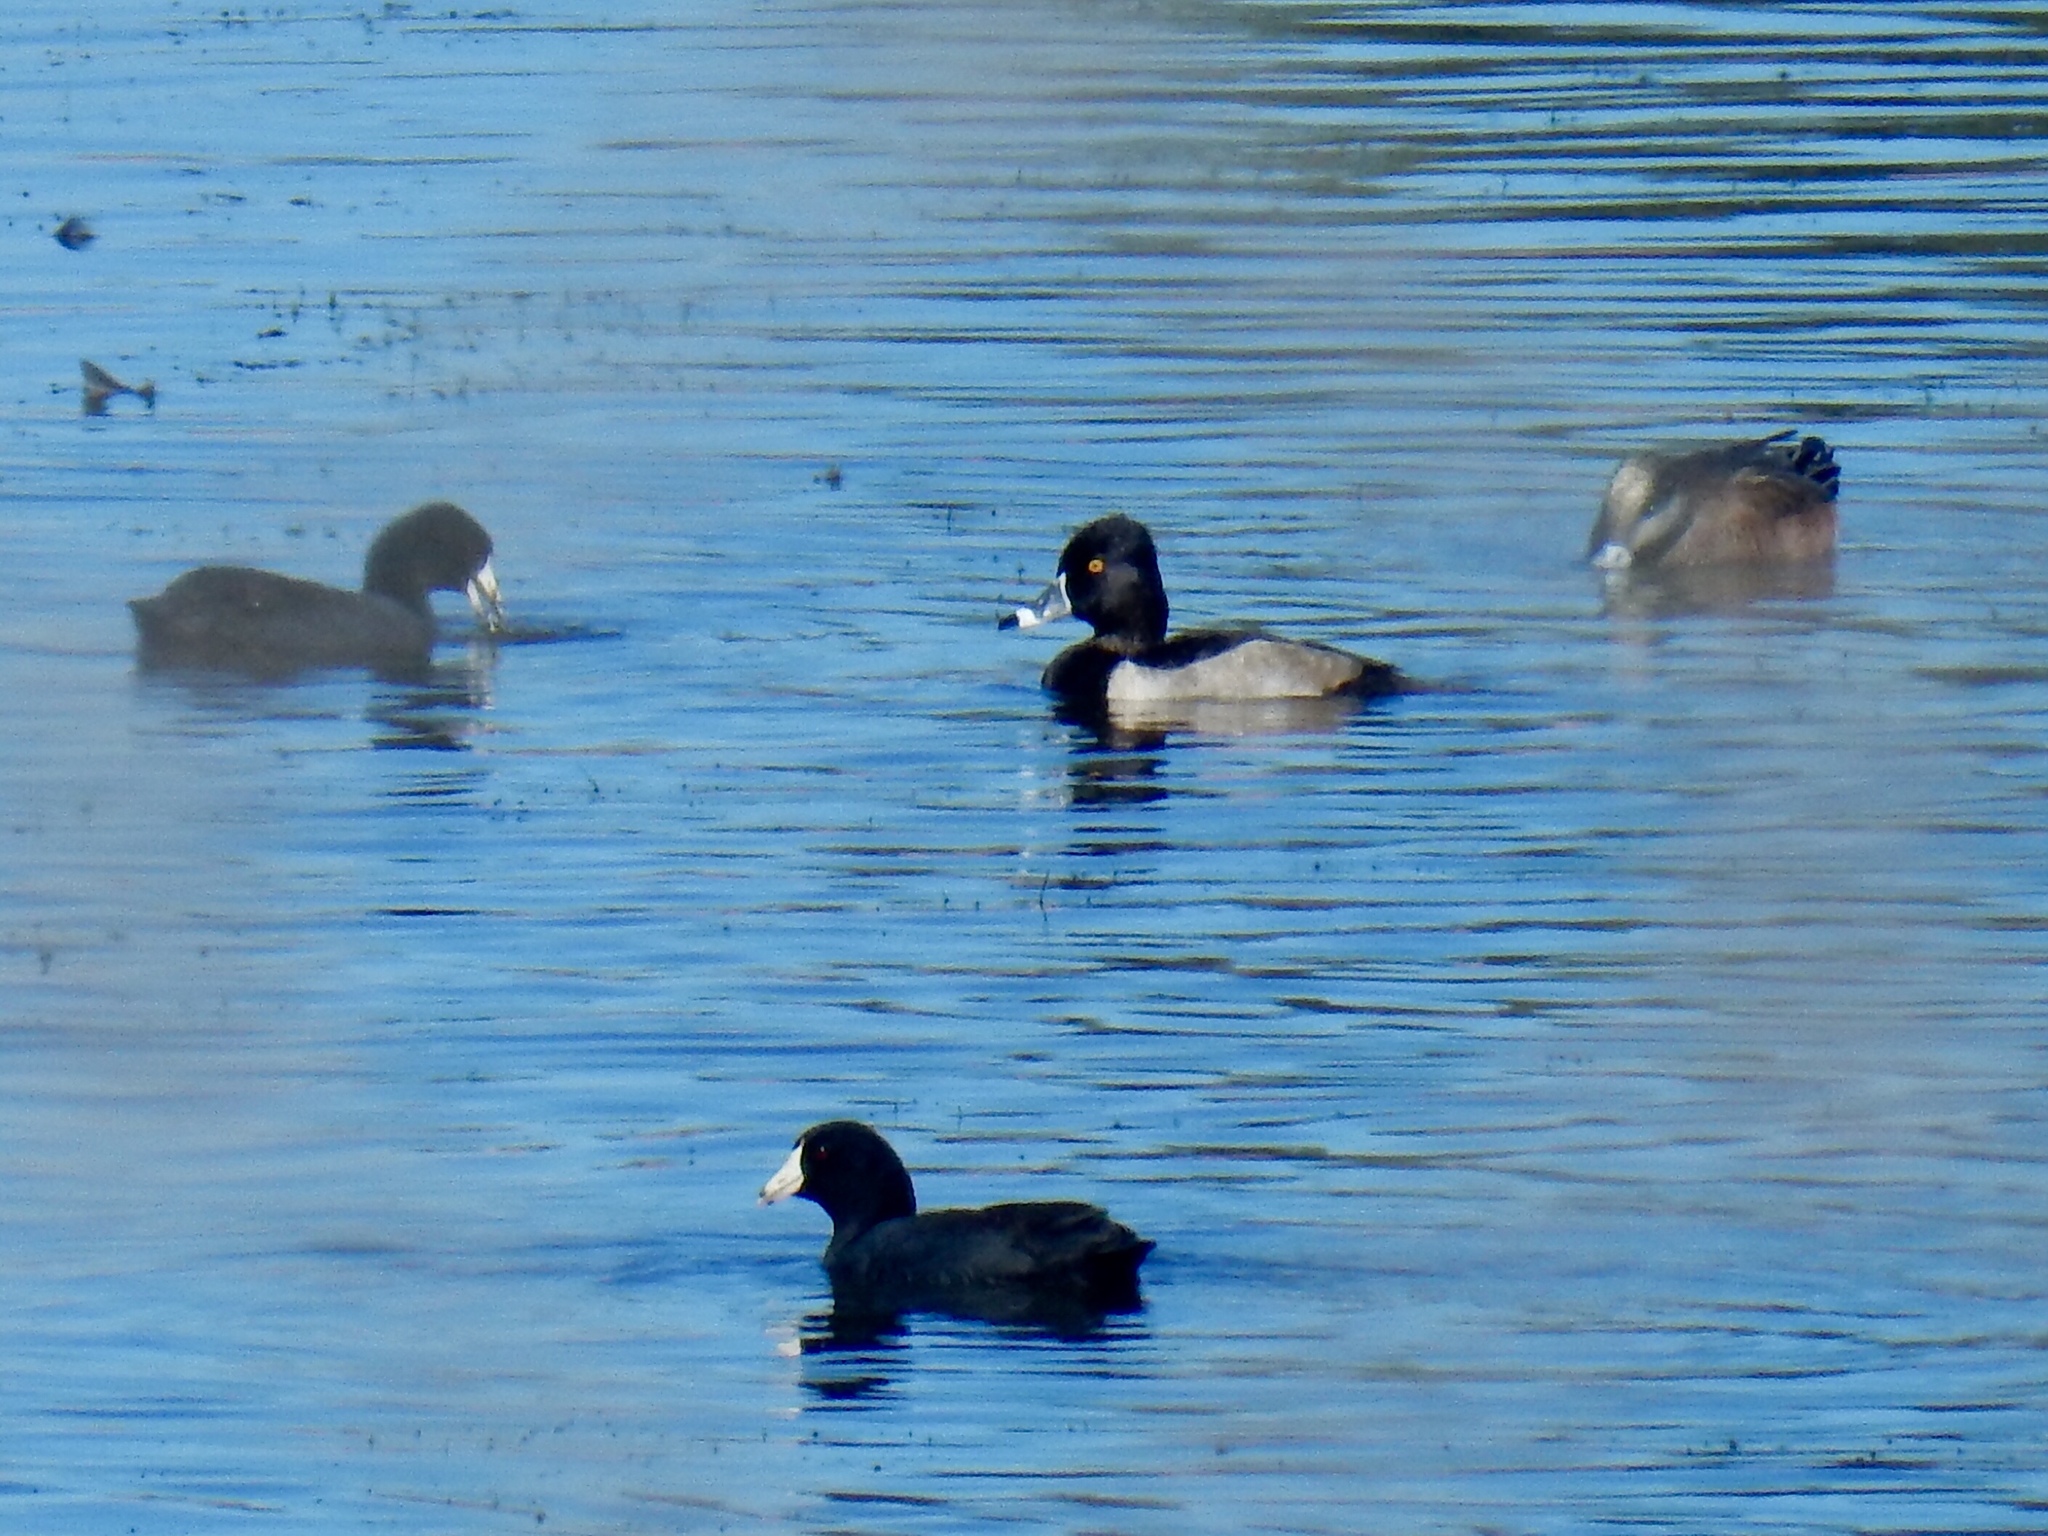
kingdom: Animalia
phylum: Chordata
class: Aves
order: Anseriformes
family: Anatidae
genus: Aythya
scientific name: Aythya collaris
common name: Ring-necked duck
